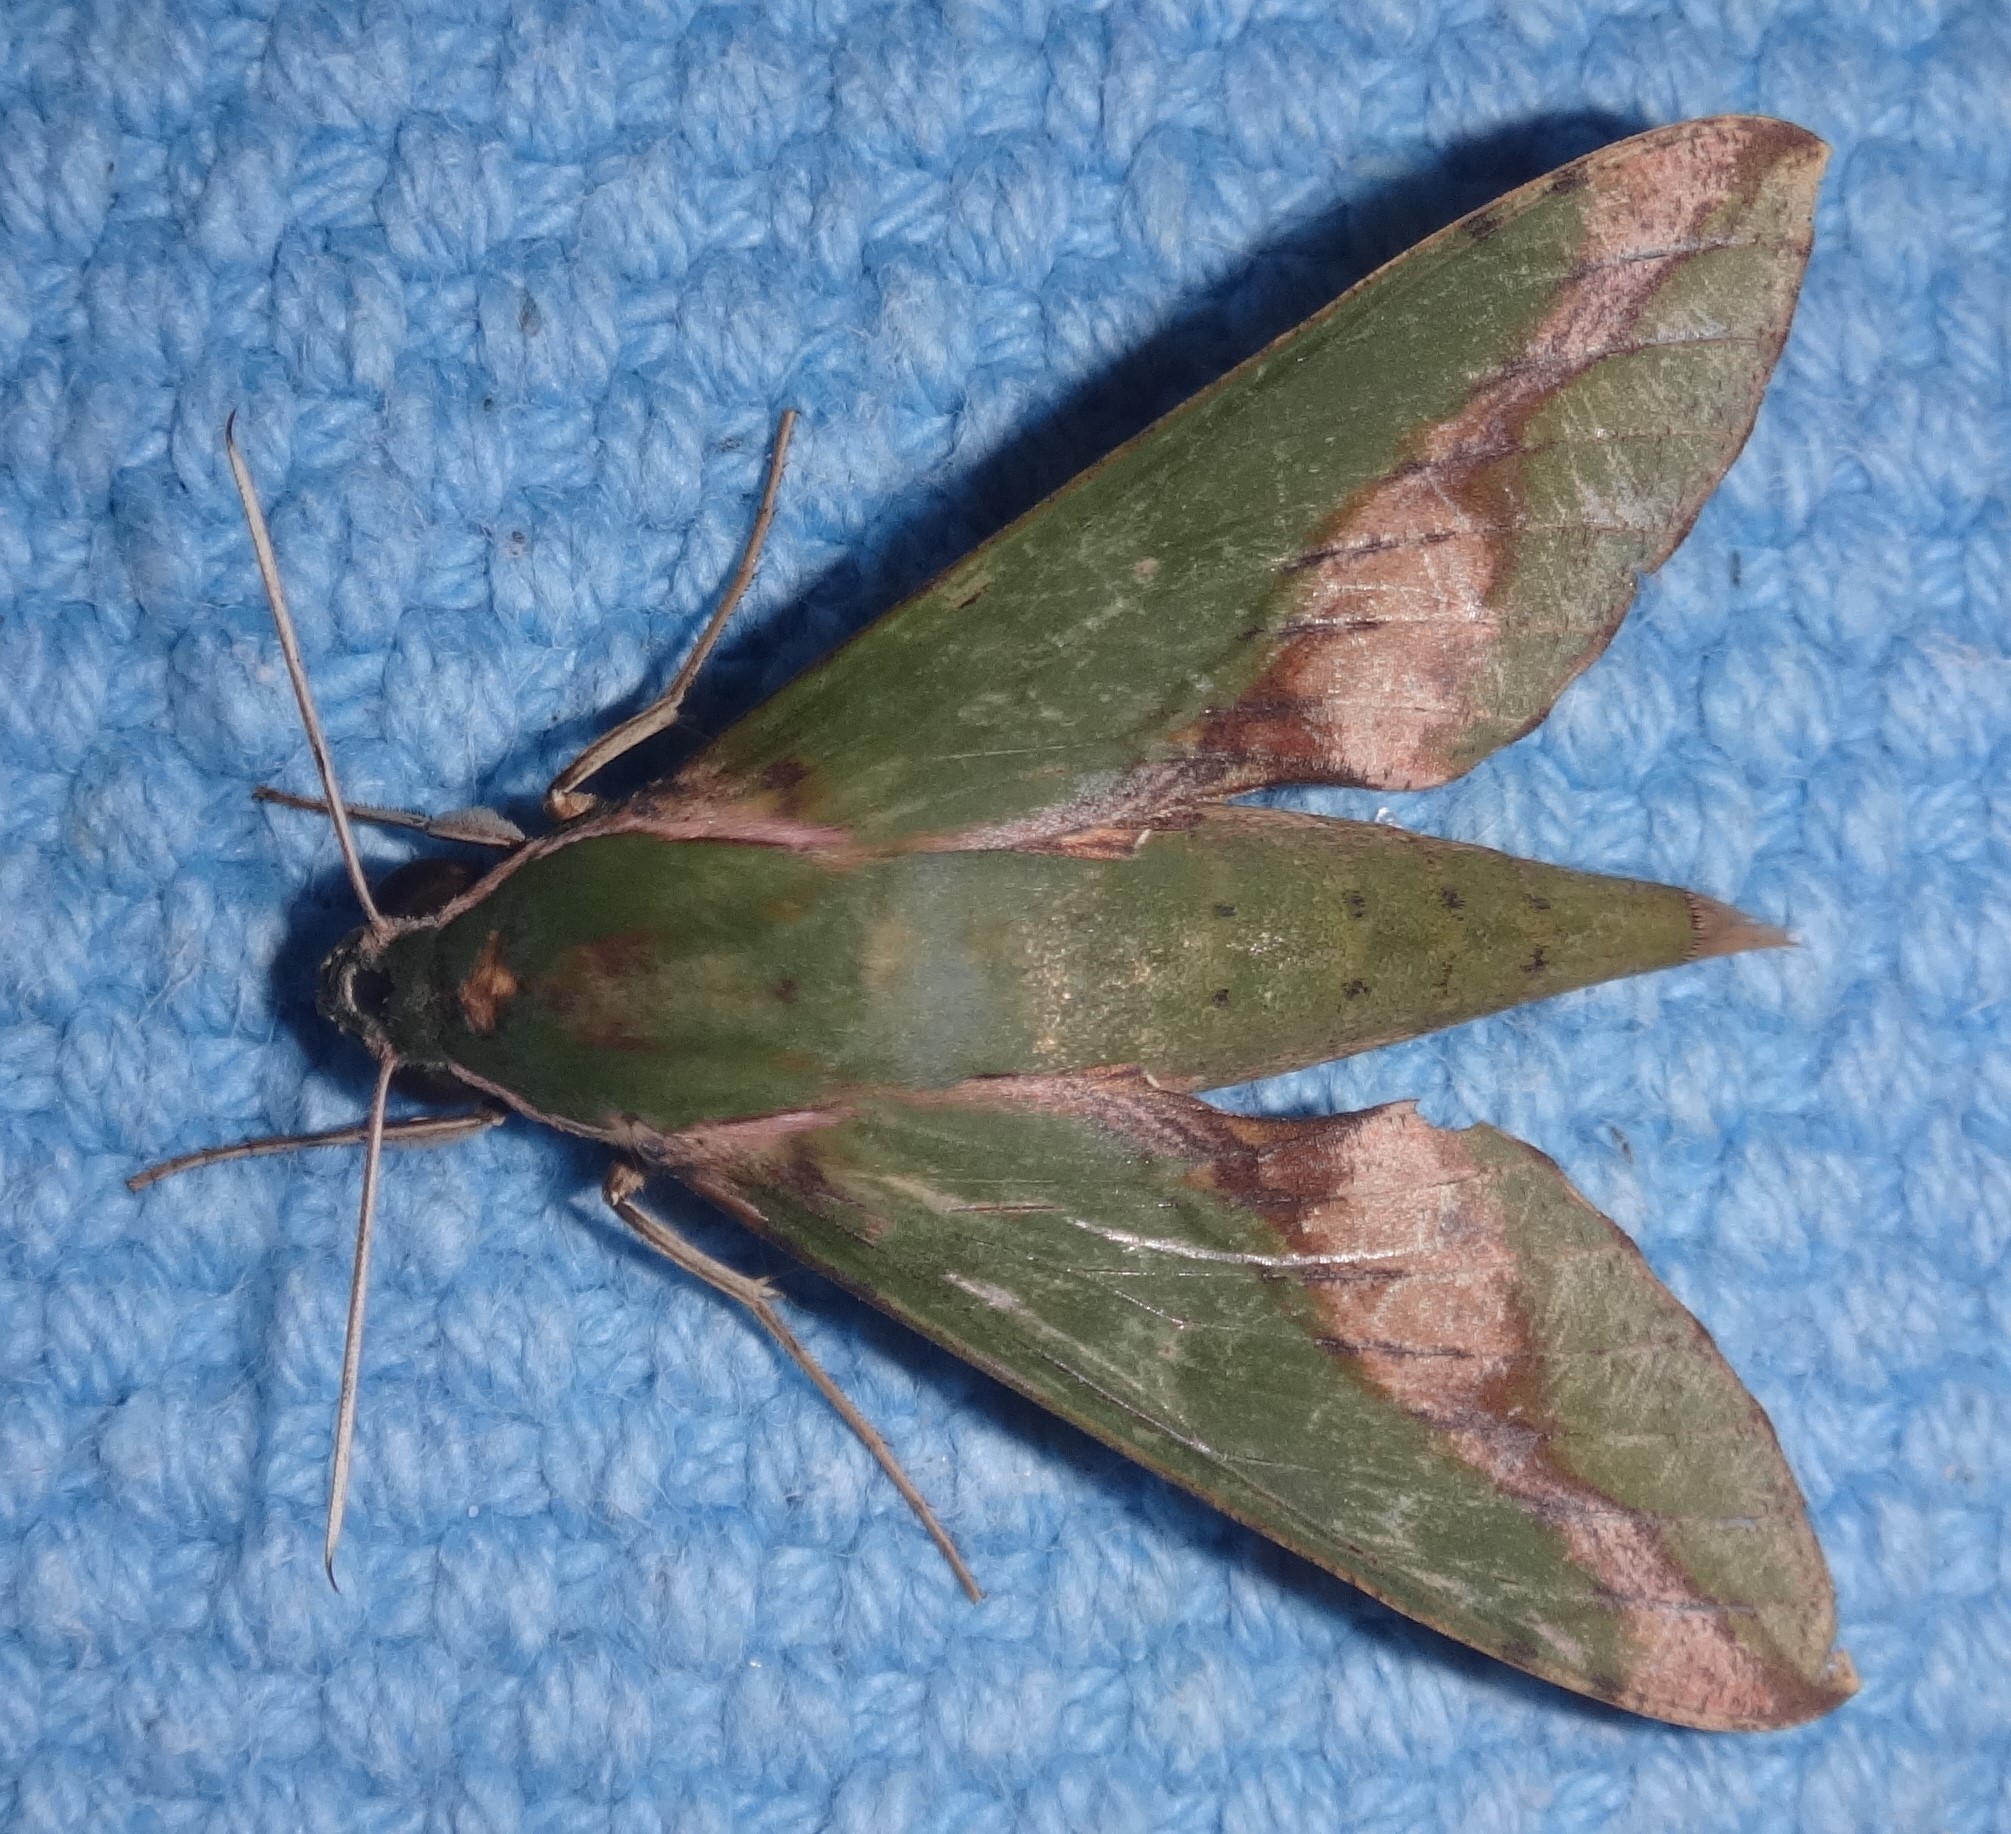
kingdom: Animalia
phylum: Arthropoda
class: Insecta
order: Lepidoptera
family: Sphingidae
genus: Xylophanes
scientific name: Xylophanes chiron
